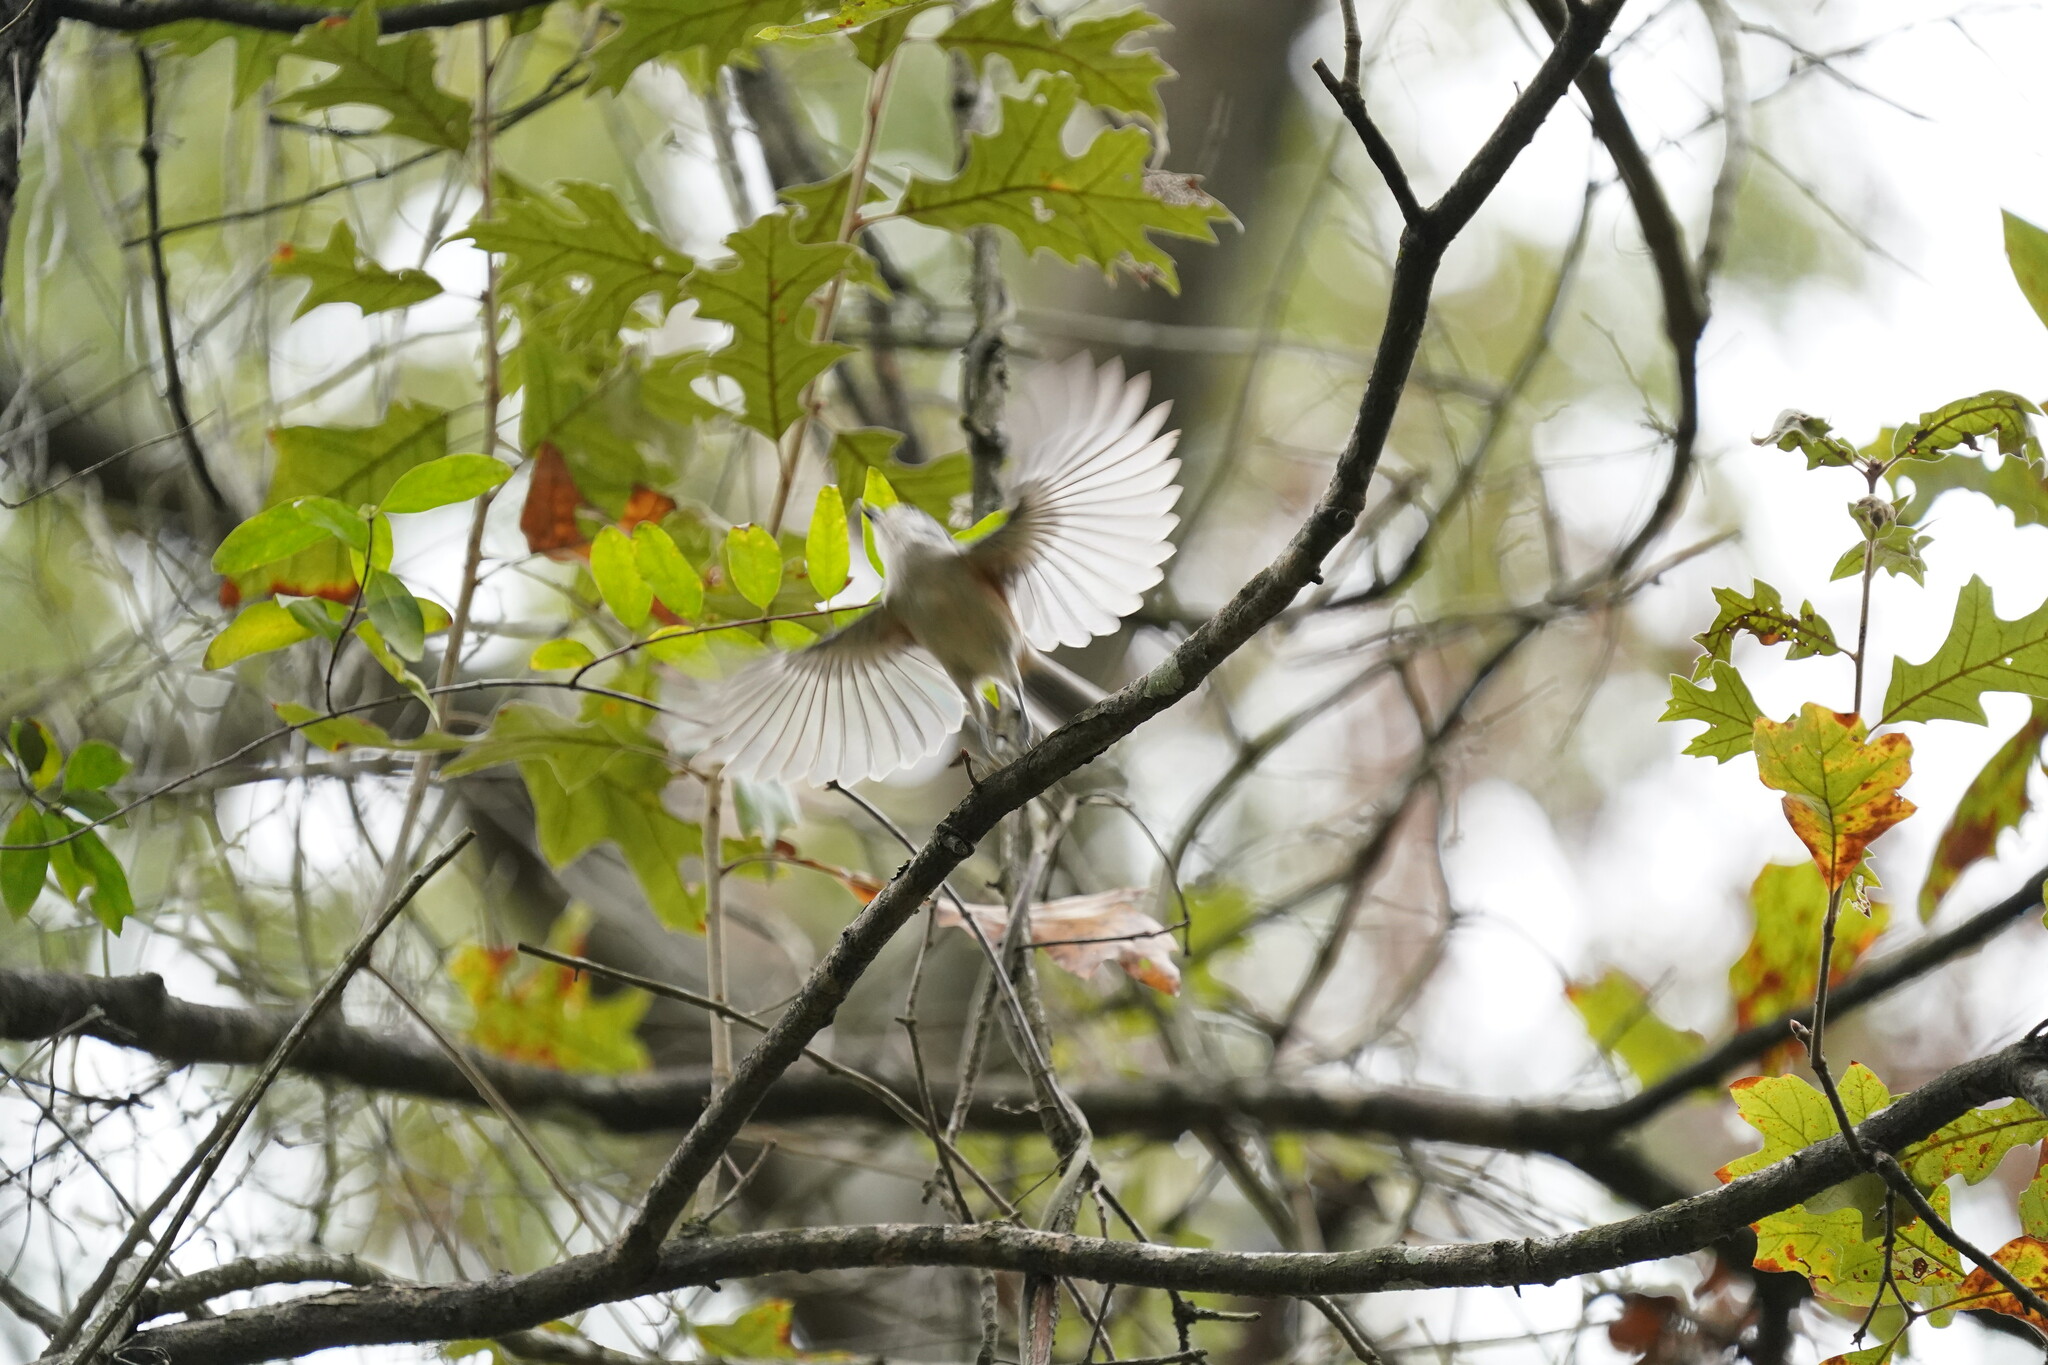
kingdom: Animalia
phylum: Chordata
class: Aves
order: Passeriformes
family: Paridae
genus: Baeolophus
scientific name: Baeolophus bicolor
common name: Tufted titmouse
